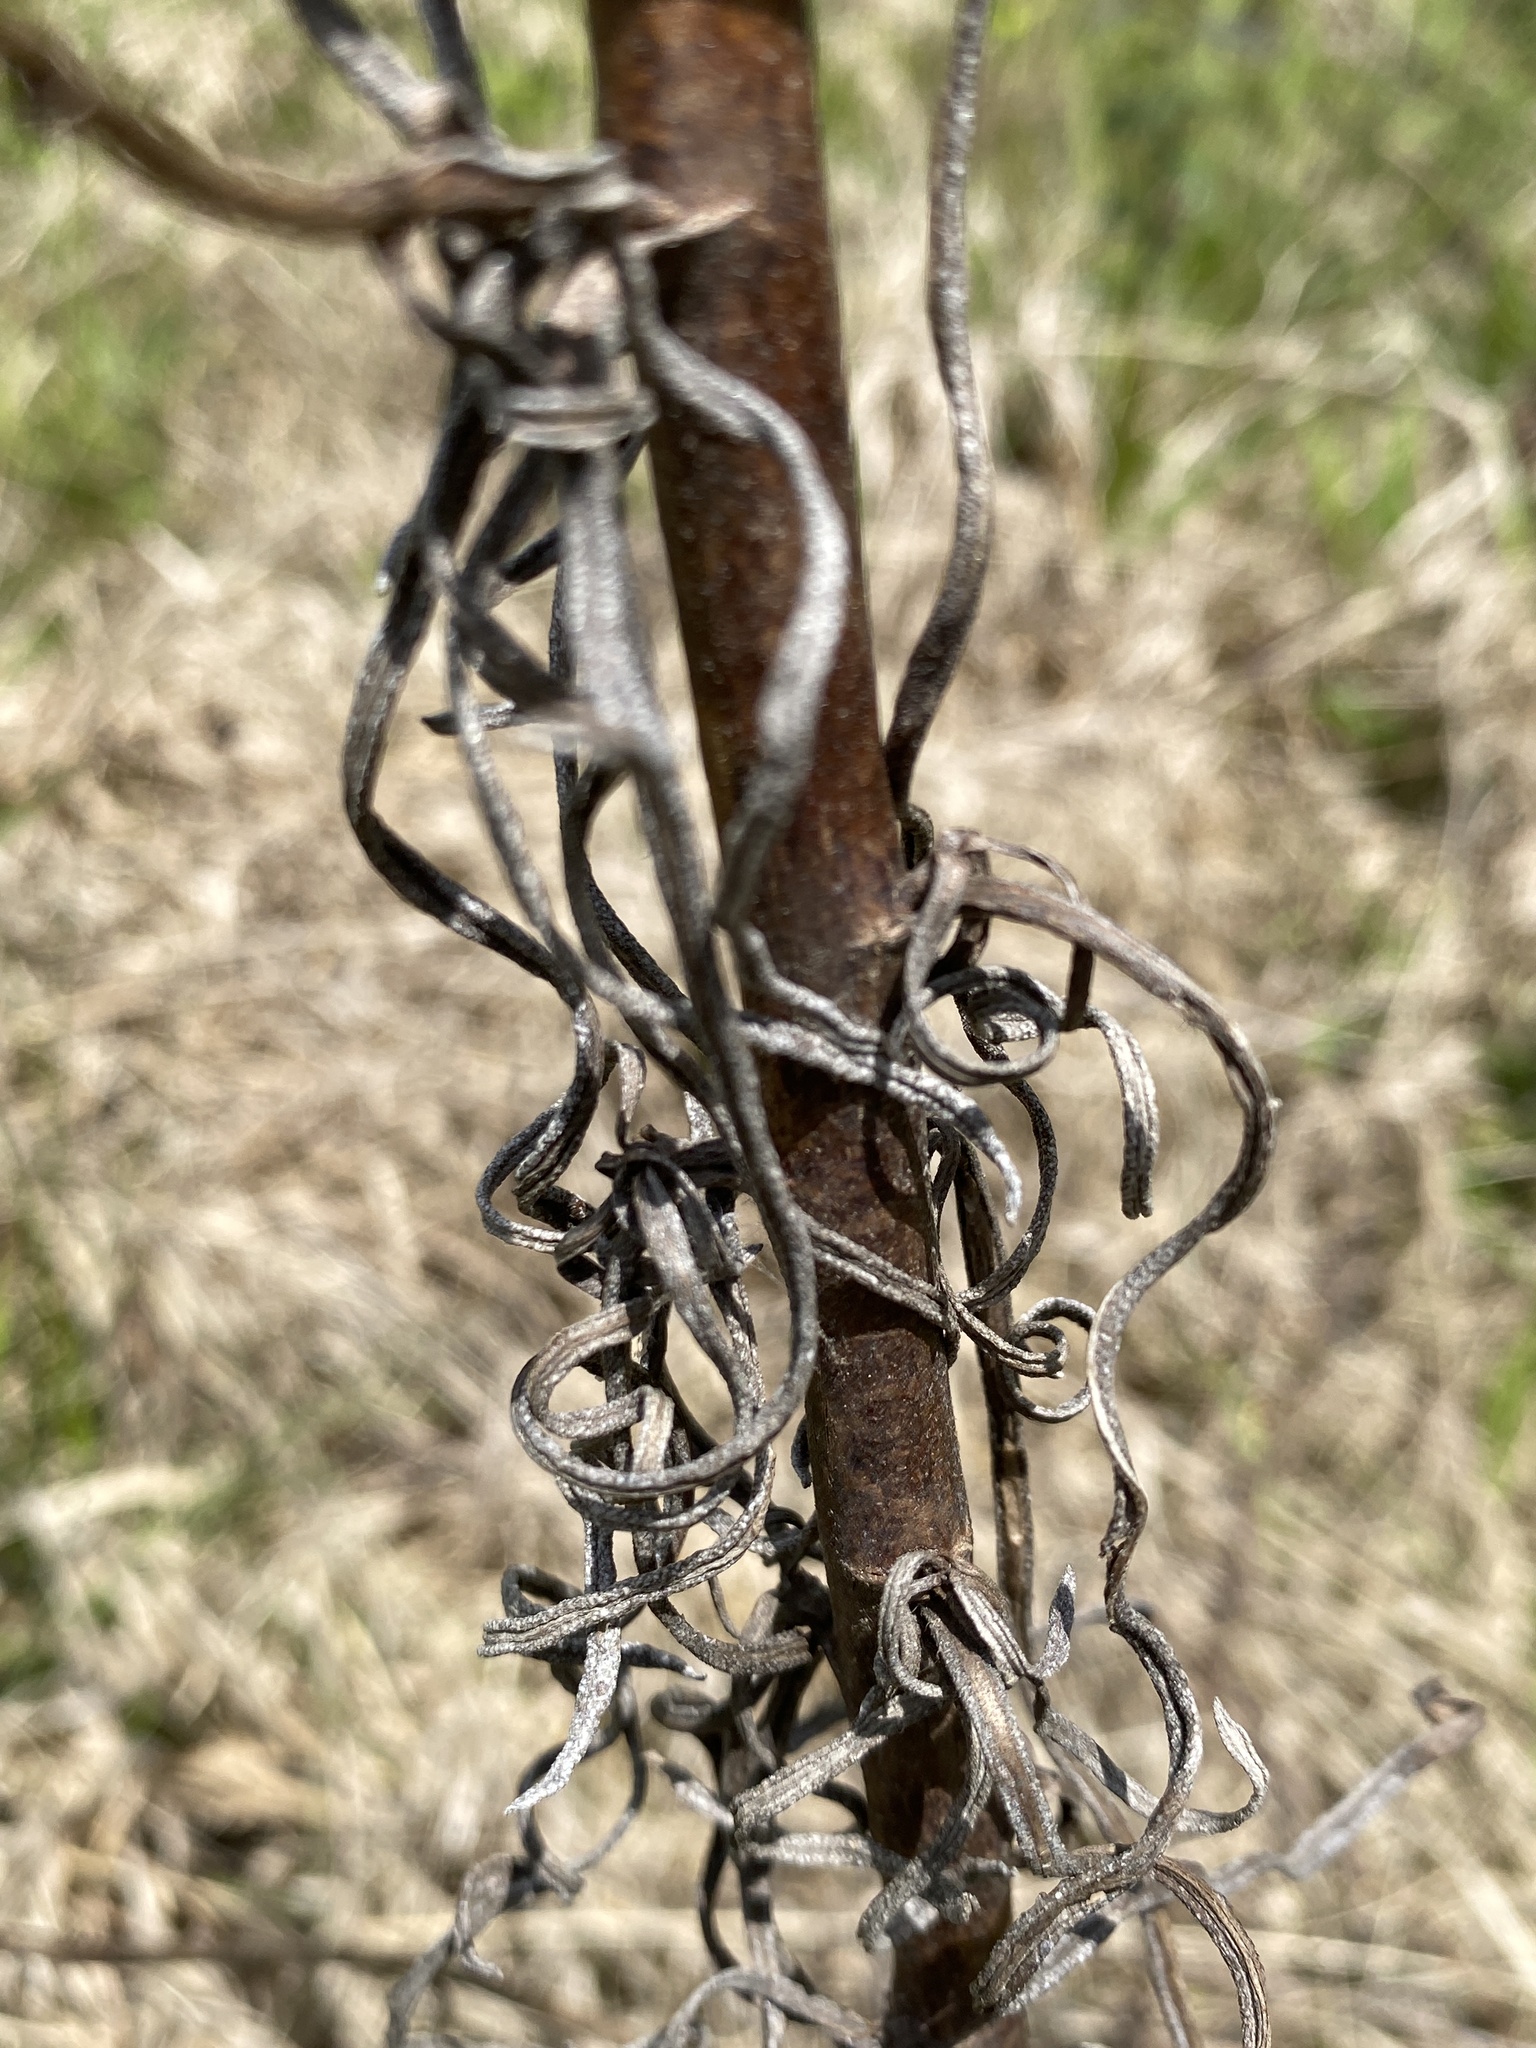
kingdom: Plantae
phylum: Tracheophyta
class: Magnoliopsida
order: Asterales
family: Asteraceae
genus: Helianthus
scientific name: Helianthus angustifolius
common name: Swamp sunflower
